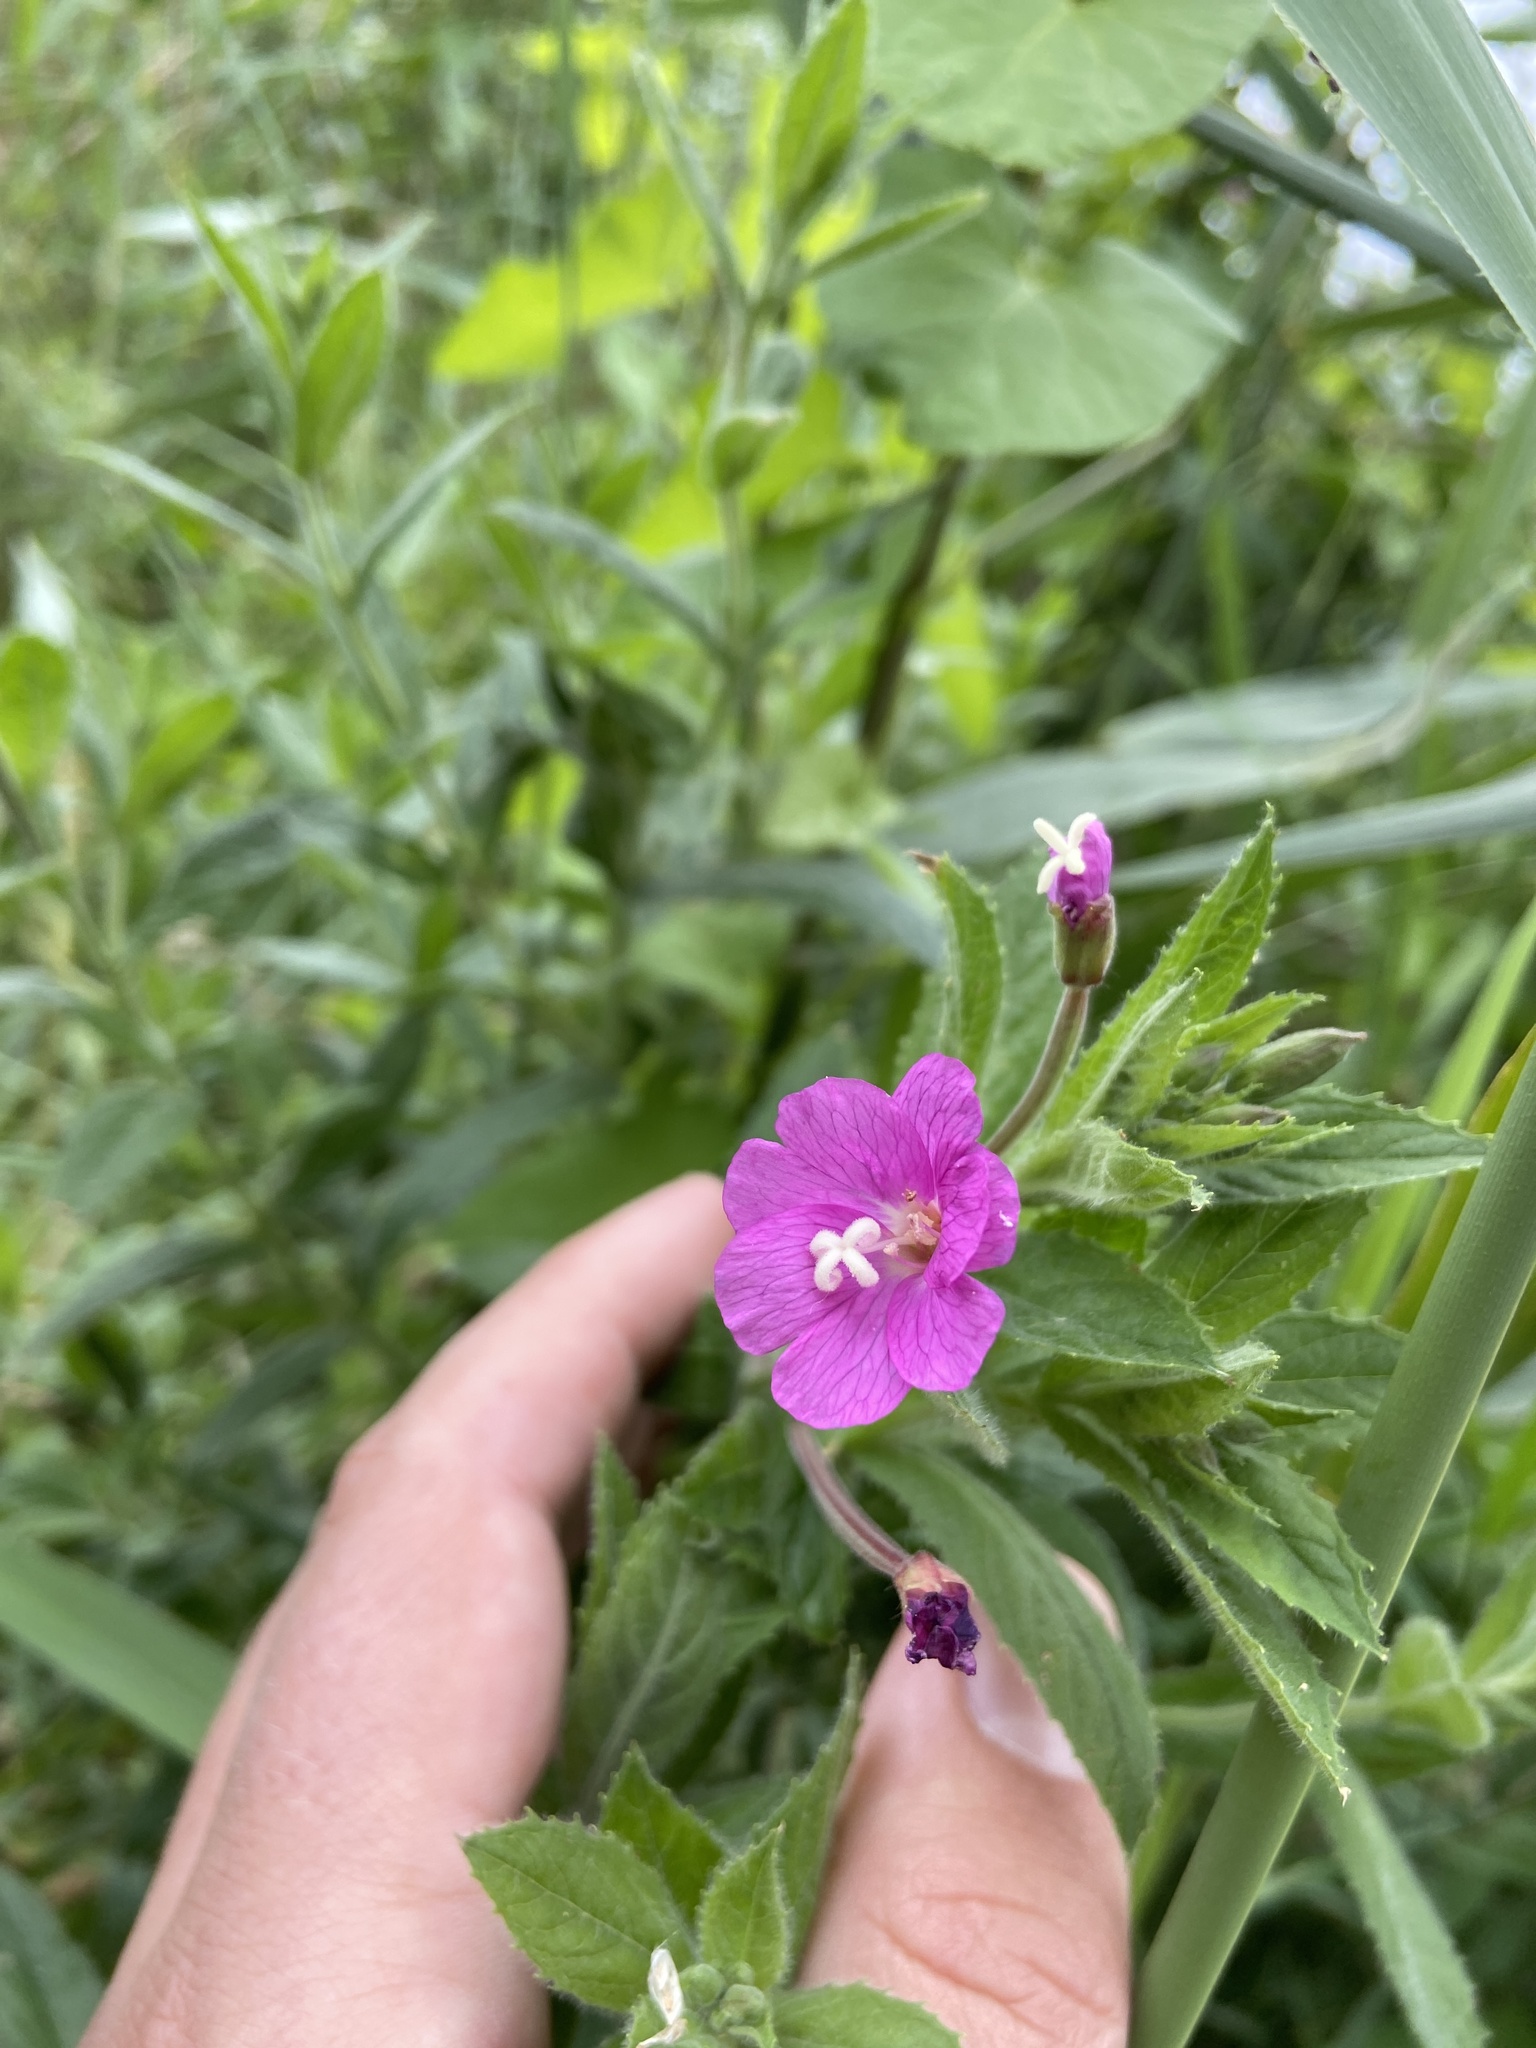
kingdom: Plantae
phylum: Tracheophyta
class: Magnoliopsida
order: Myrtales
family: Onagraceae
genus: Epilobium
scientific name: Epilobium hirsutum
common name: Great willowherb
